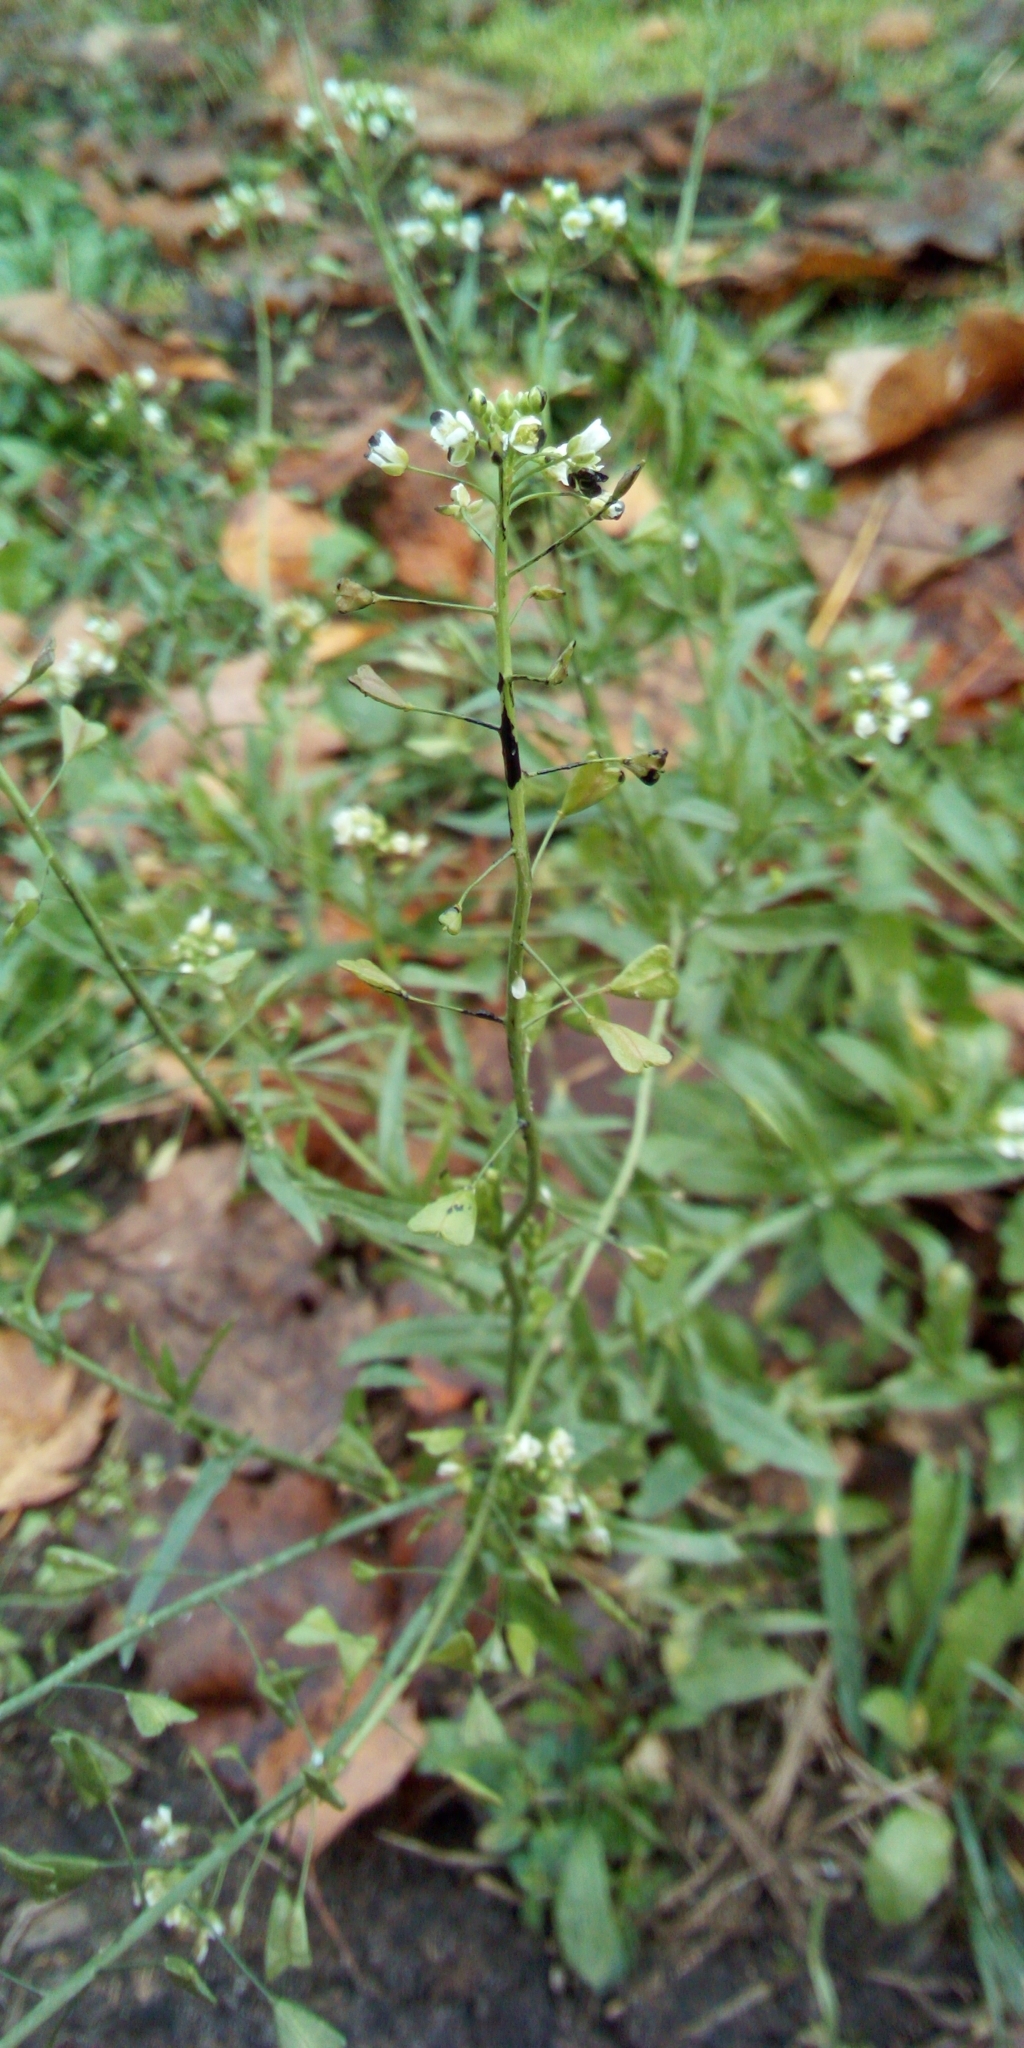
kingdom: Plantae
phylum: Tracheophyta
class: Magnoliopsida
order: Brassicales
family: Brassicaceae
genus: Capsella
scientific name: Capsella bursa-pastoris
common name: Shepherd's purse
